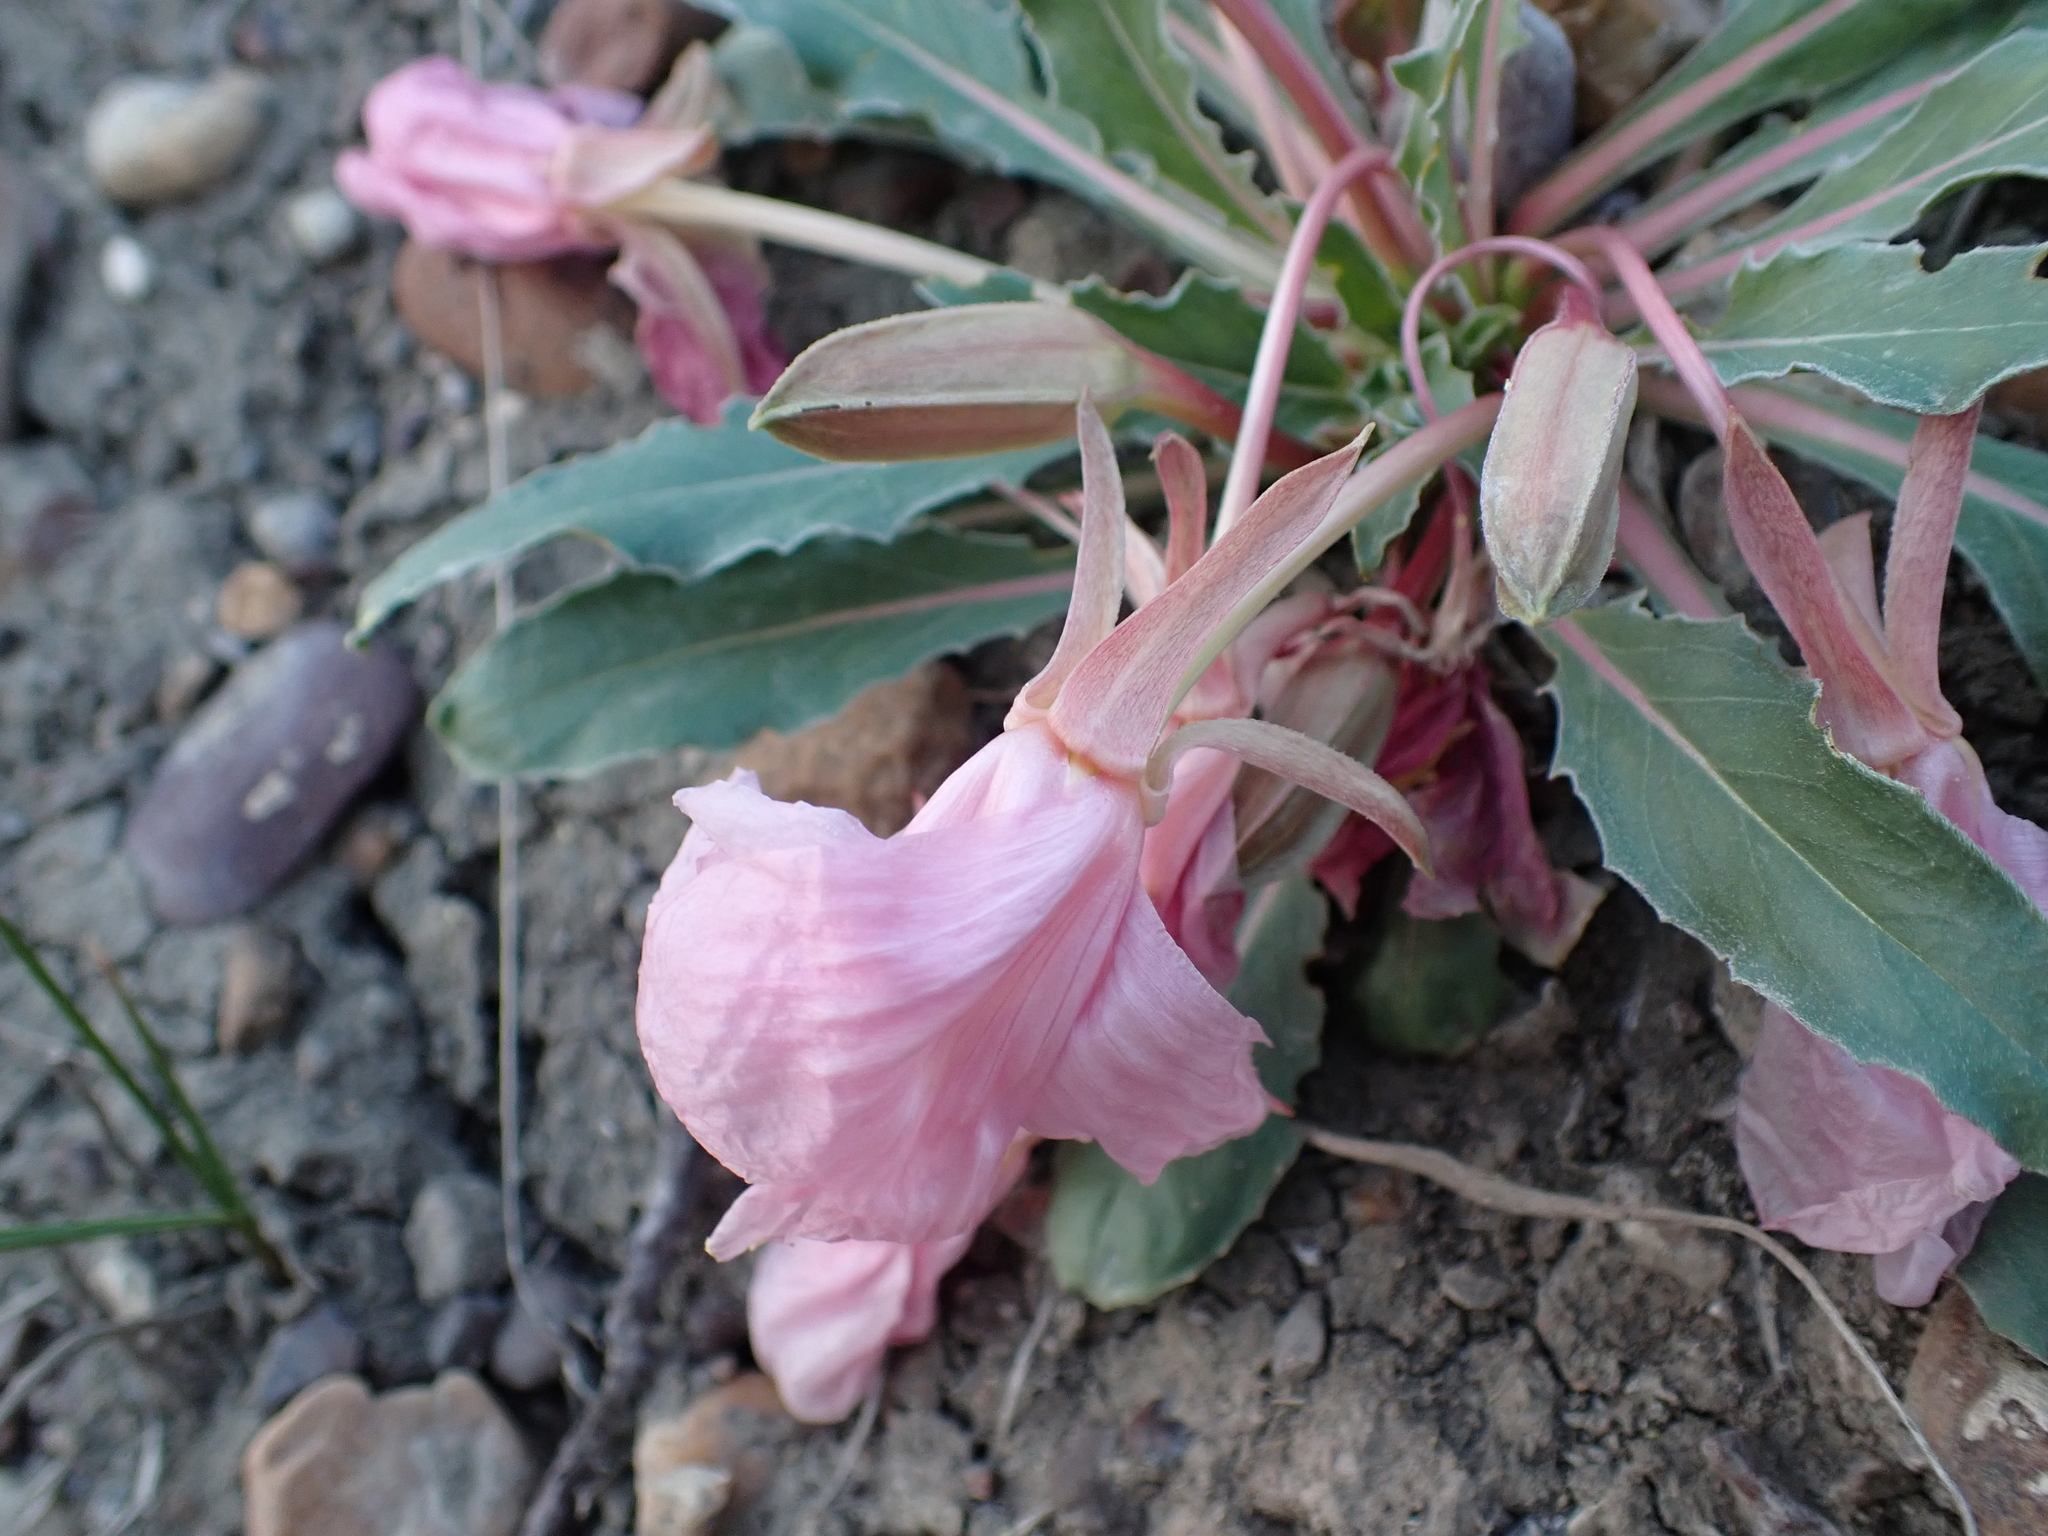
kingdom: Plantae
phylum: Tracheophyta
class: Magnoliopsida
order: Myrtales
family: Onagraceae
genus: Oenothera
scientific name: Oenothera cespitosa
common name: Tufted evening-primrose
